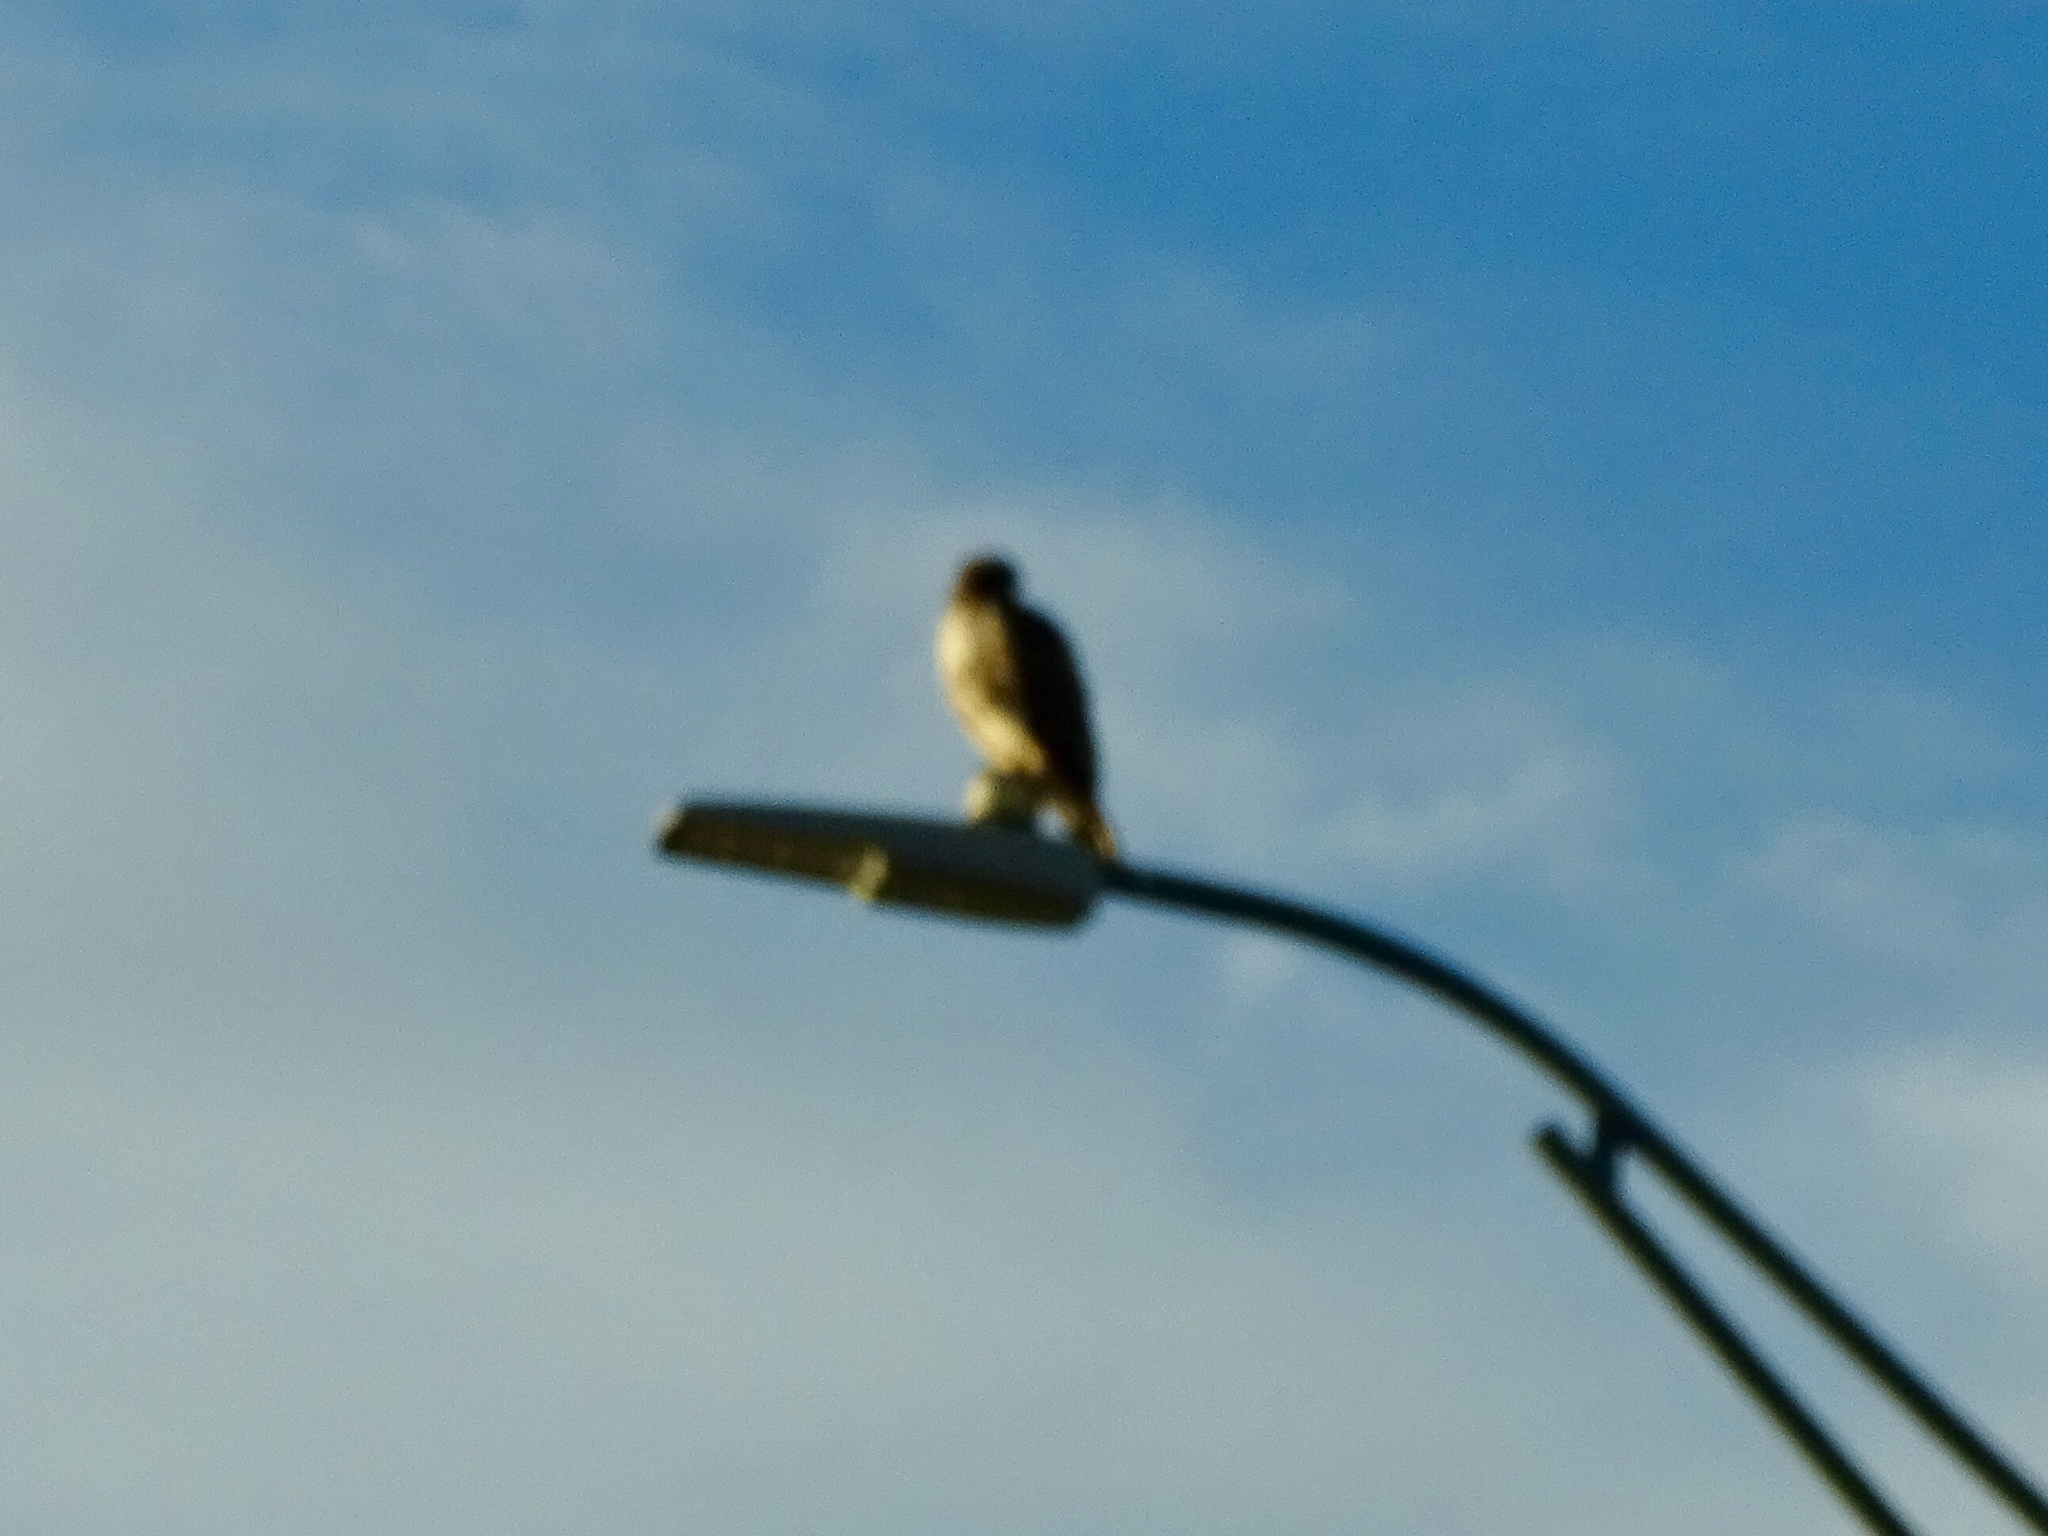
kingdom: Animalia
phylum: Chordata
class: Aves
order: Accipitriformes
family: Accipitridae
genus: Buteo
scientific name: Buteo jamaicensis
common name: Red-tailed hawk
